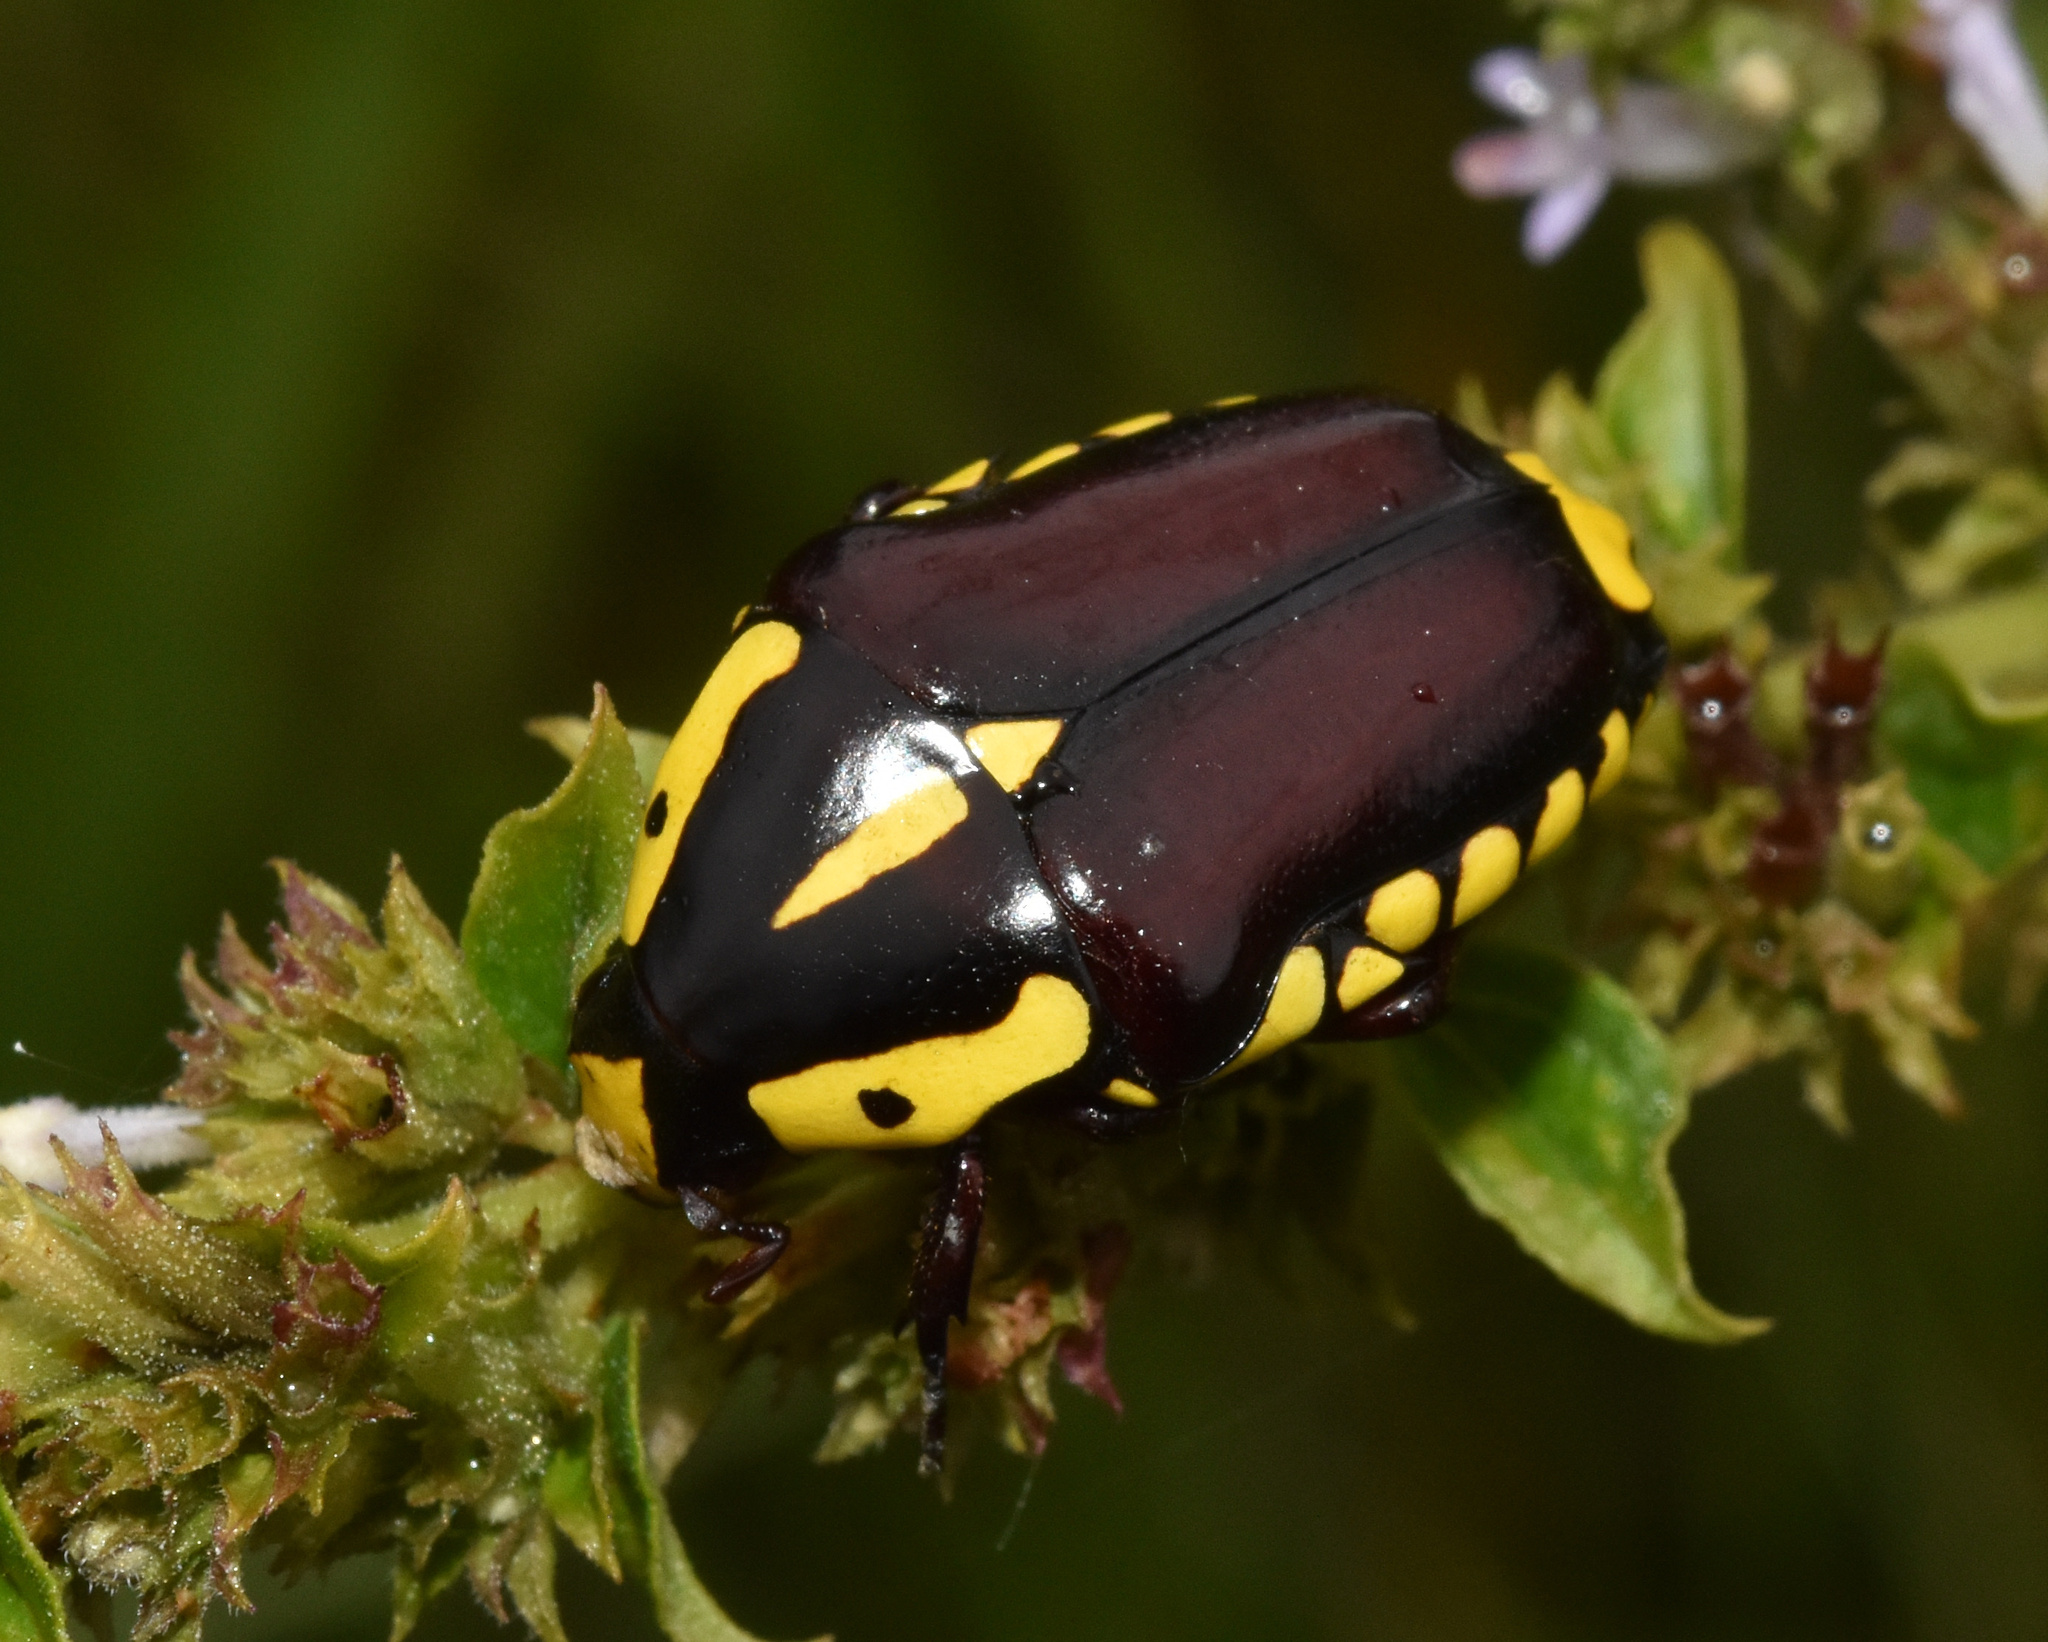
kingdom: Animalia
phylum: Arthropoda
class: Insecta
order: Coleoptera
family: Scarabaeidae
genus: Campsiura
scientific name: Campsiura cognata
